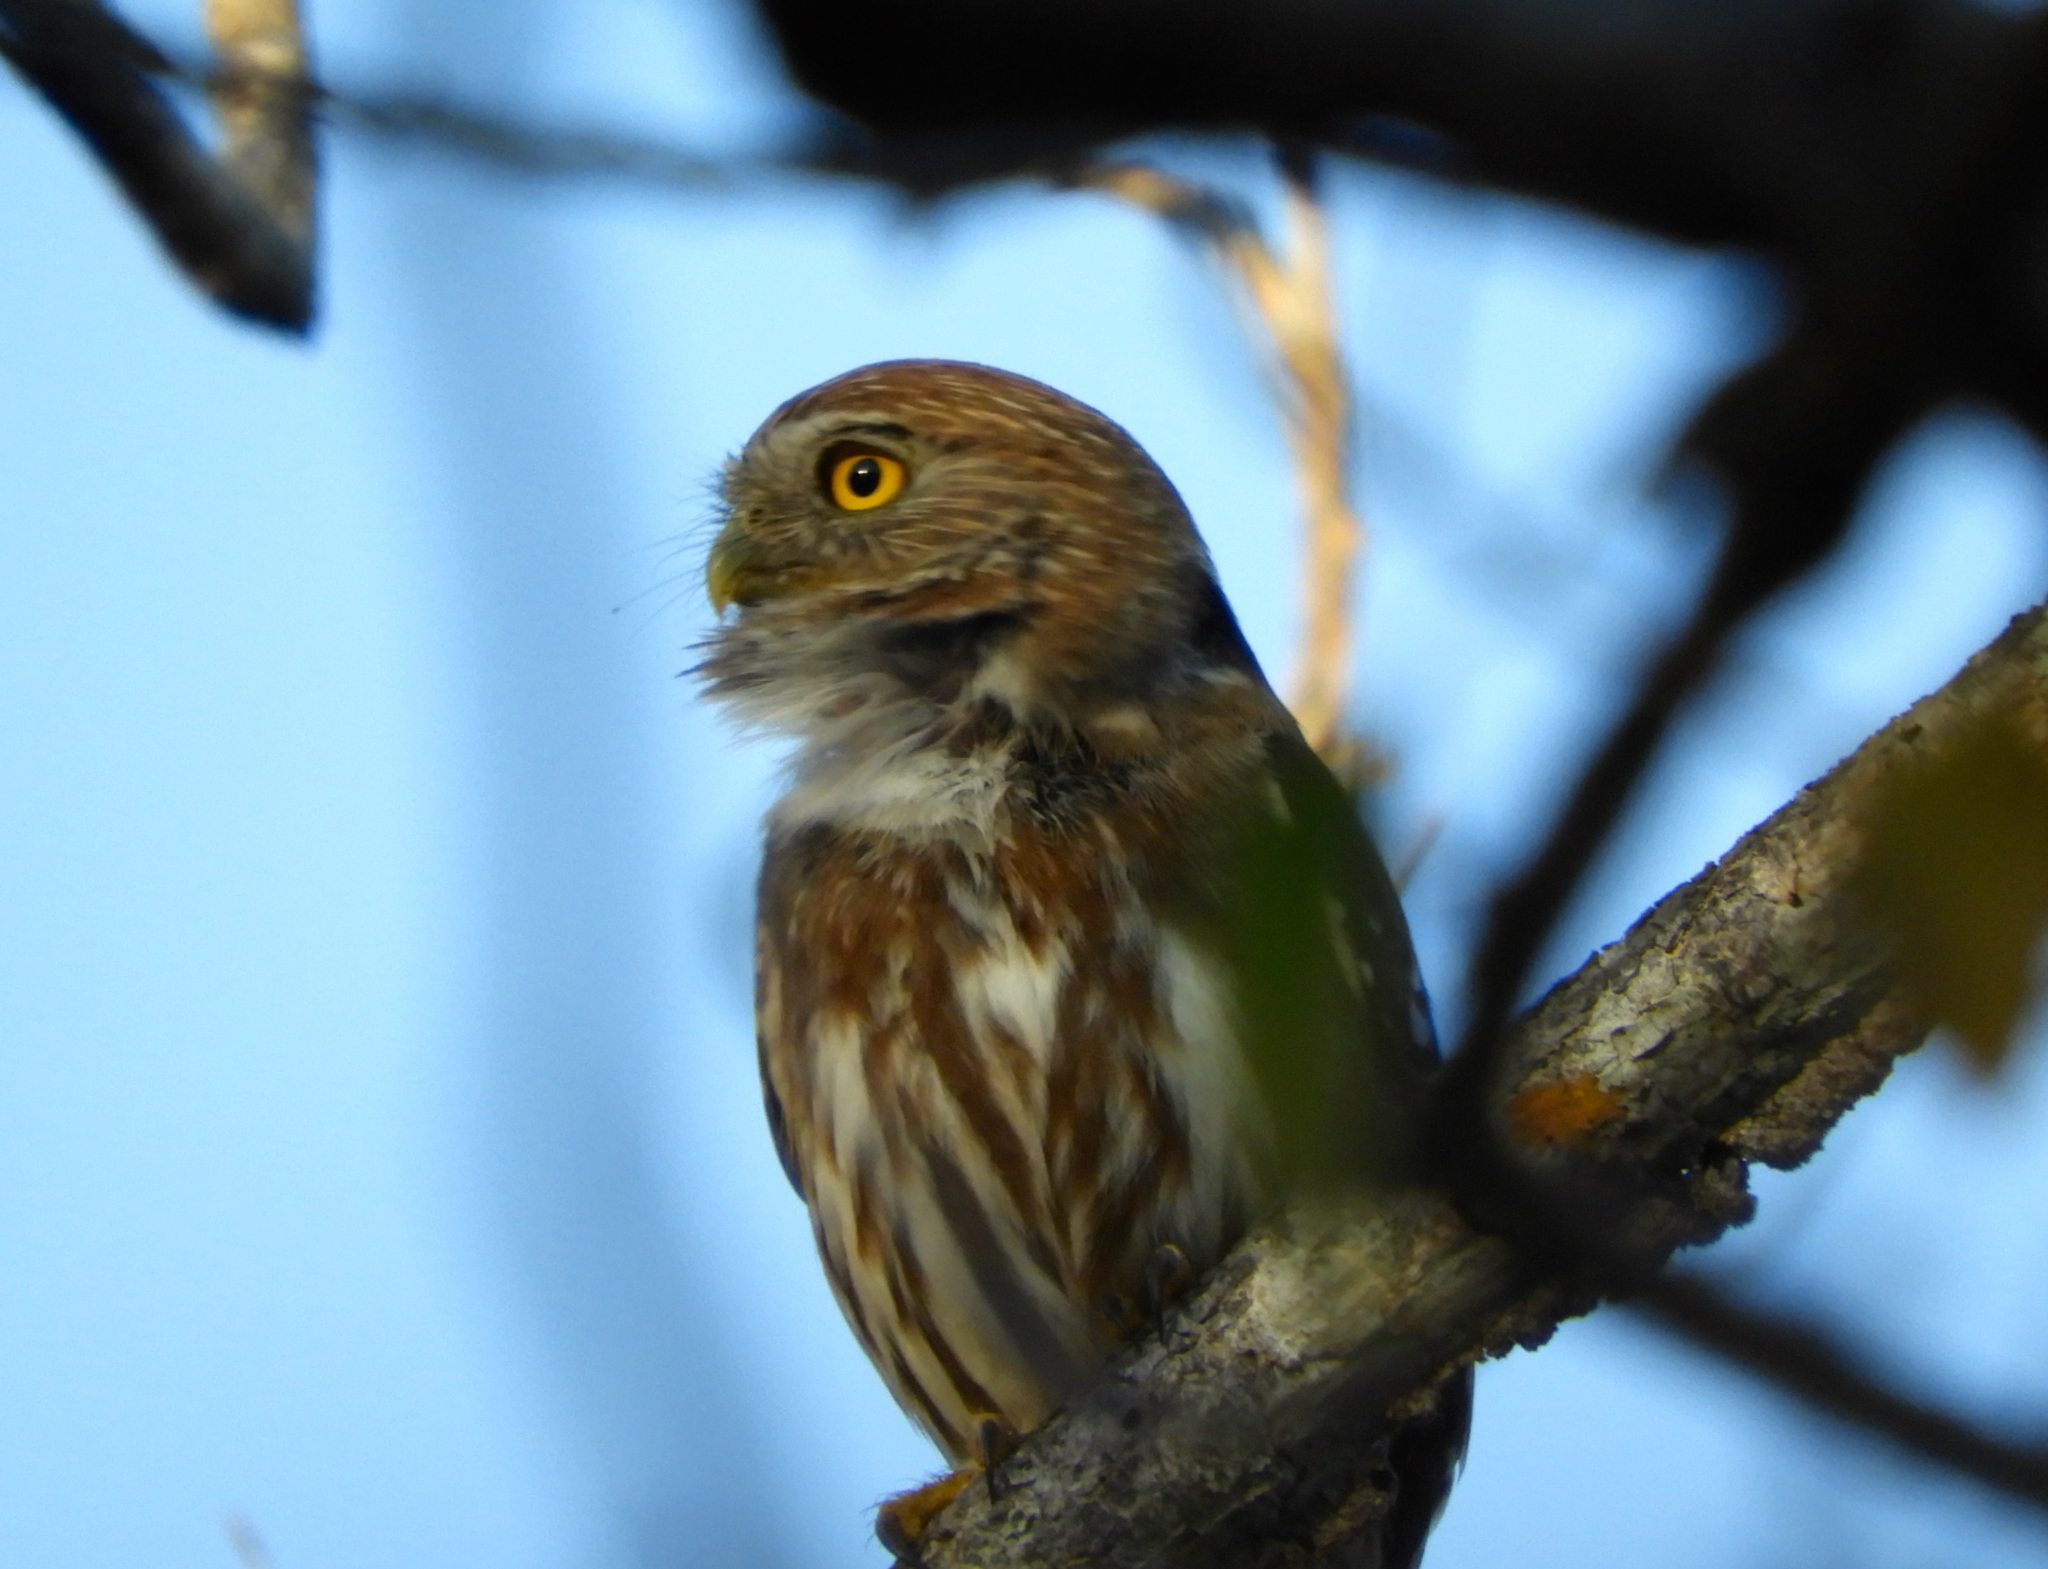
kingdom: Animalia
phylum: Chordata
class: Aves
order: Strigiformes
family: Strigidae
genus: Glaucidium
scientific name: Glaucidium brasilianum
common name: Ferruginous pygmy-owl
